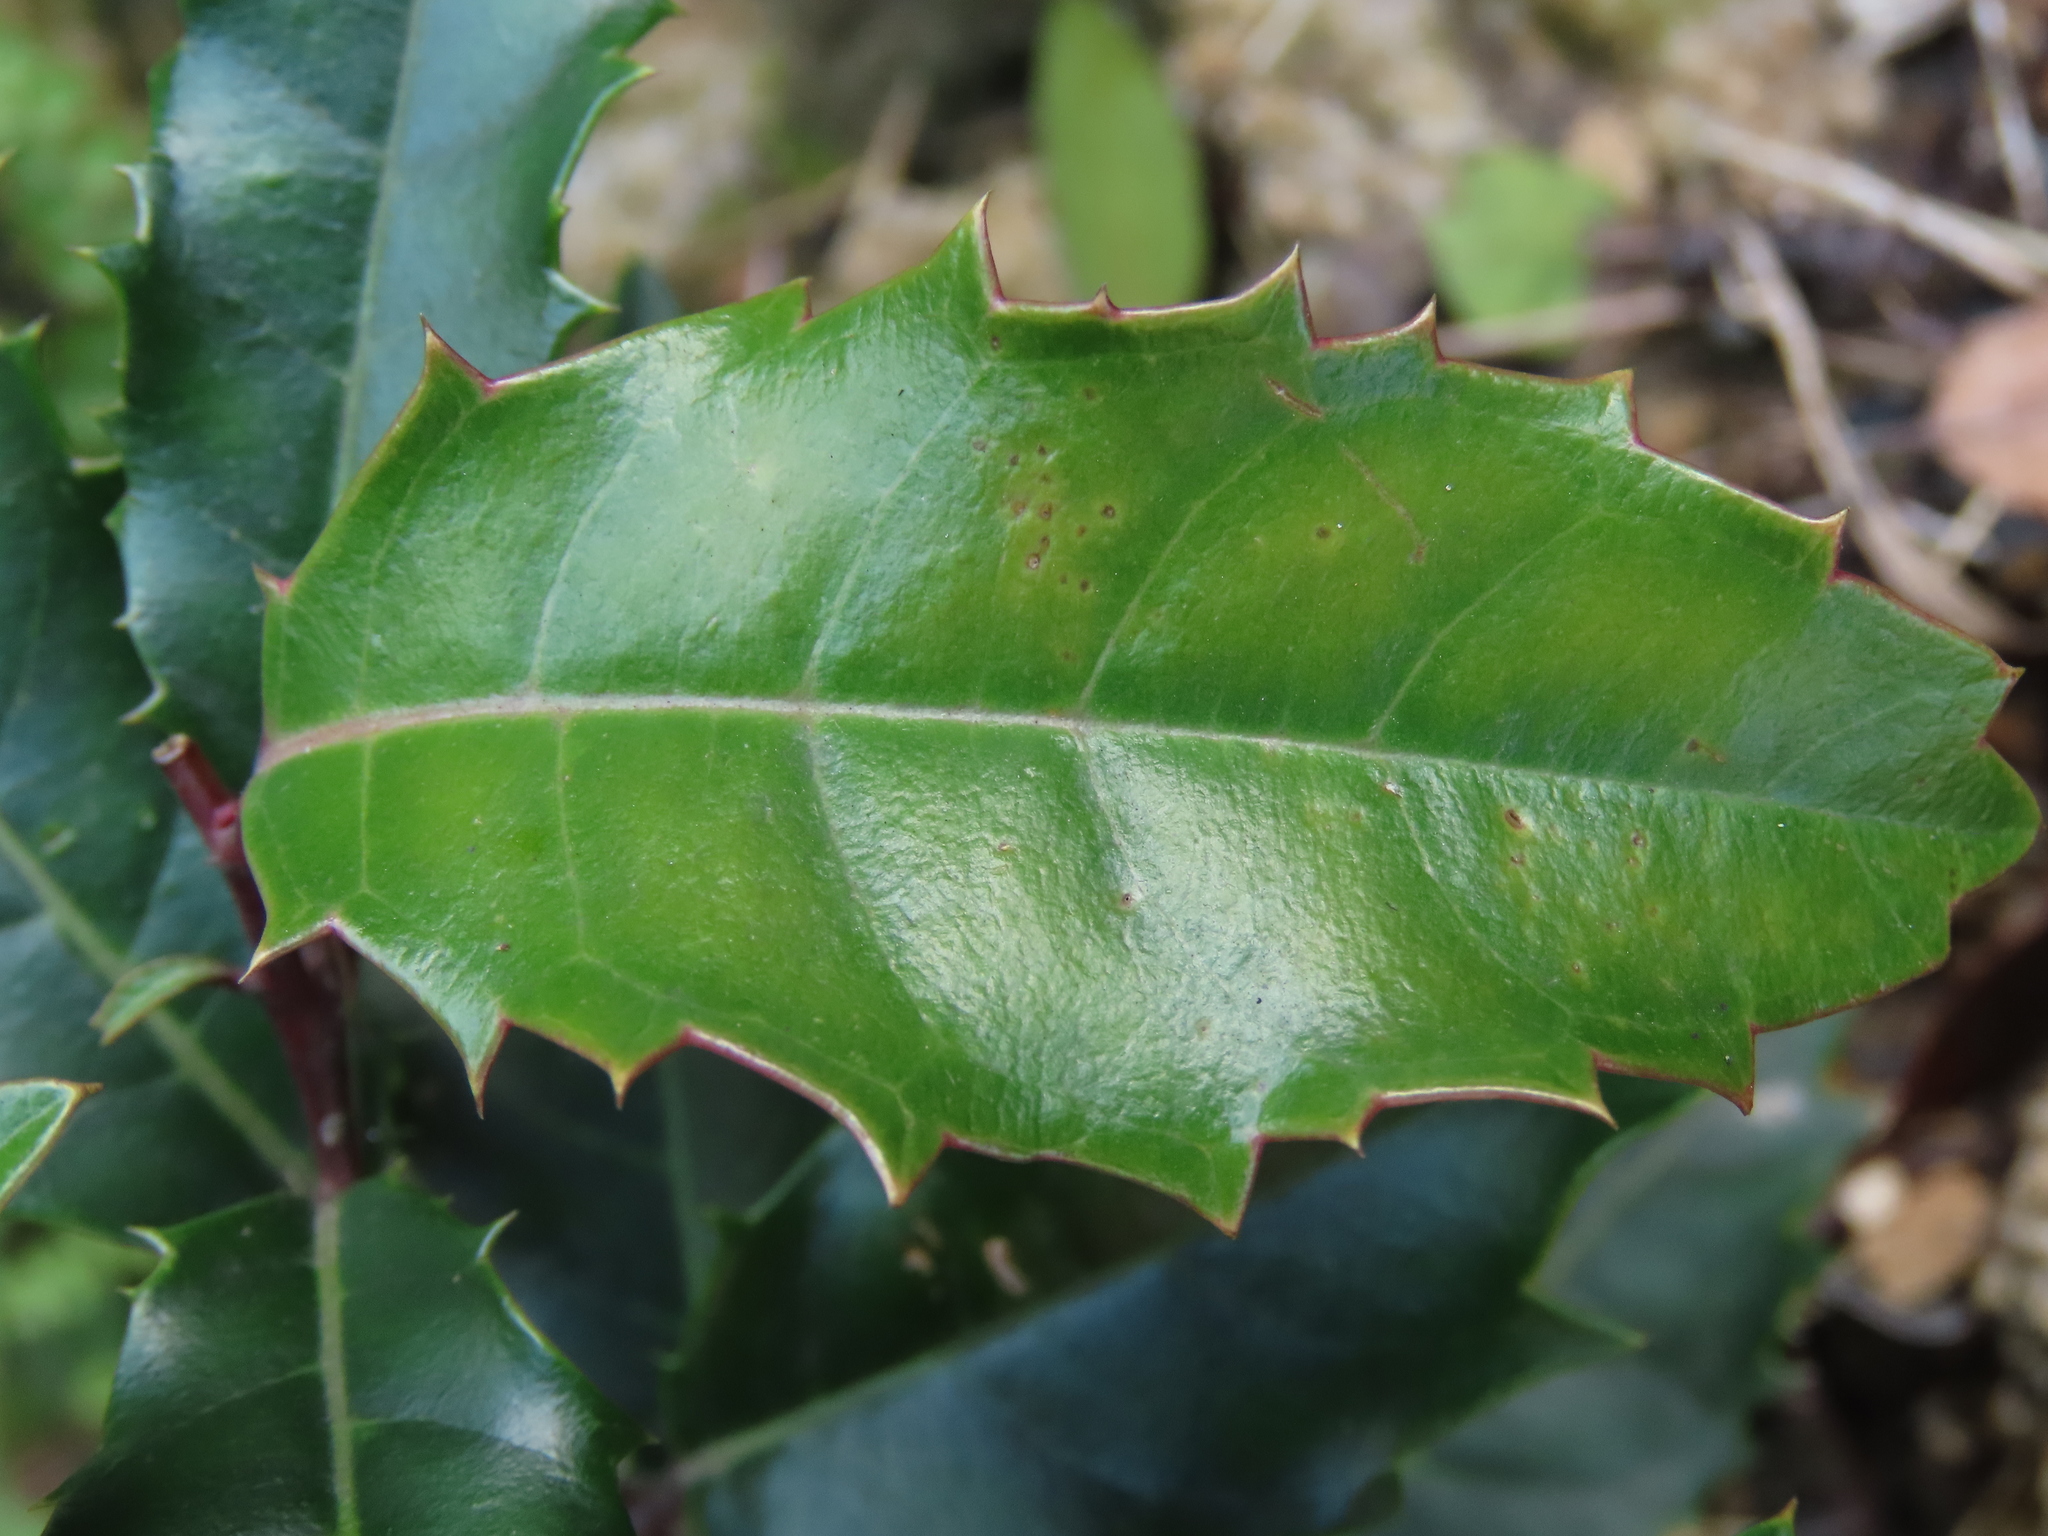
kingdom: Plantae
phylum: Tracheophyta
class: Magnoliopsida
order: Saxifragales
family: Iteaceae
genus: Itea
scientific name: Itea oldhamii
